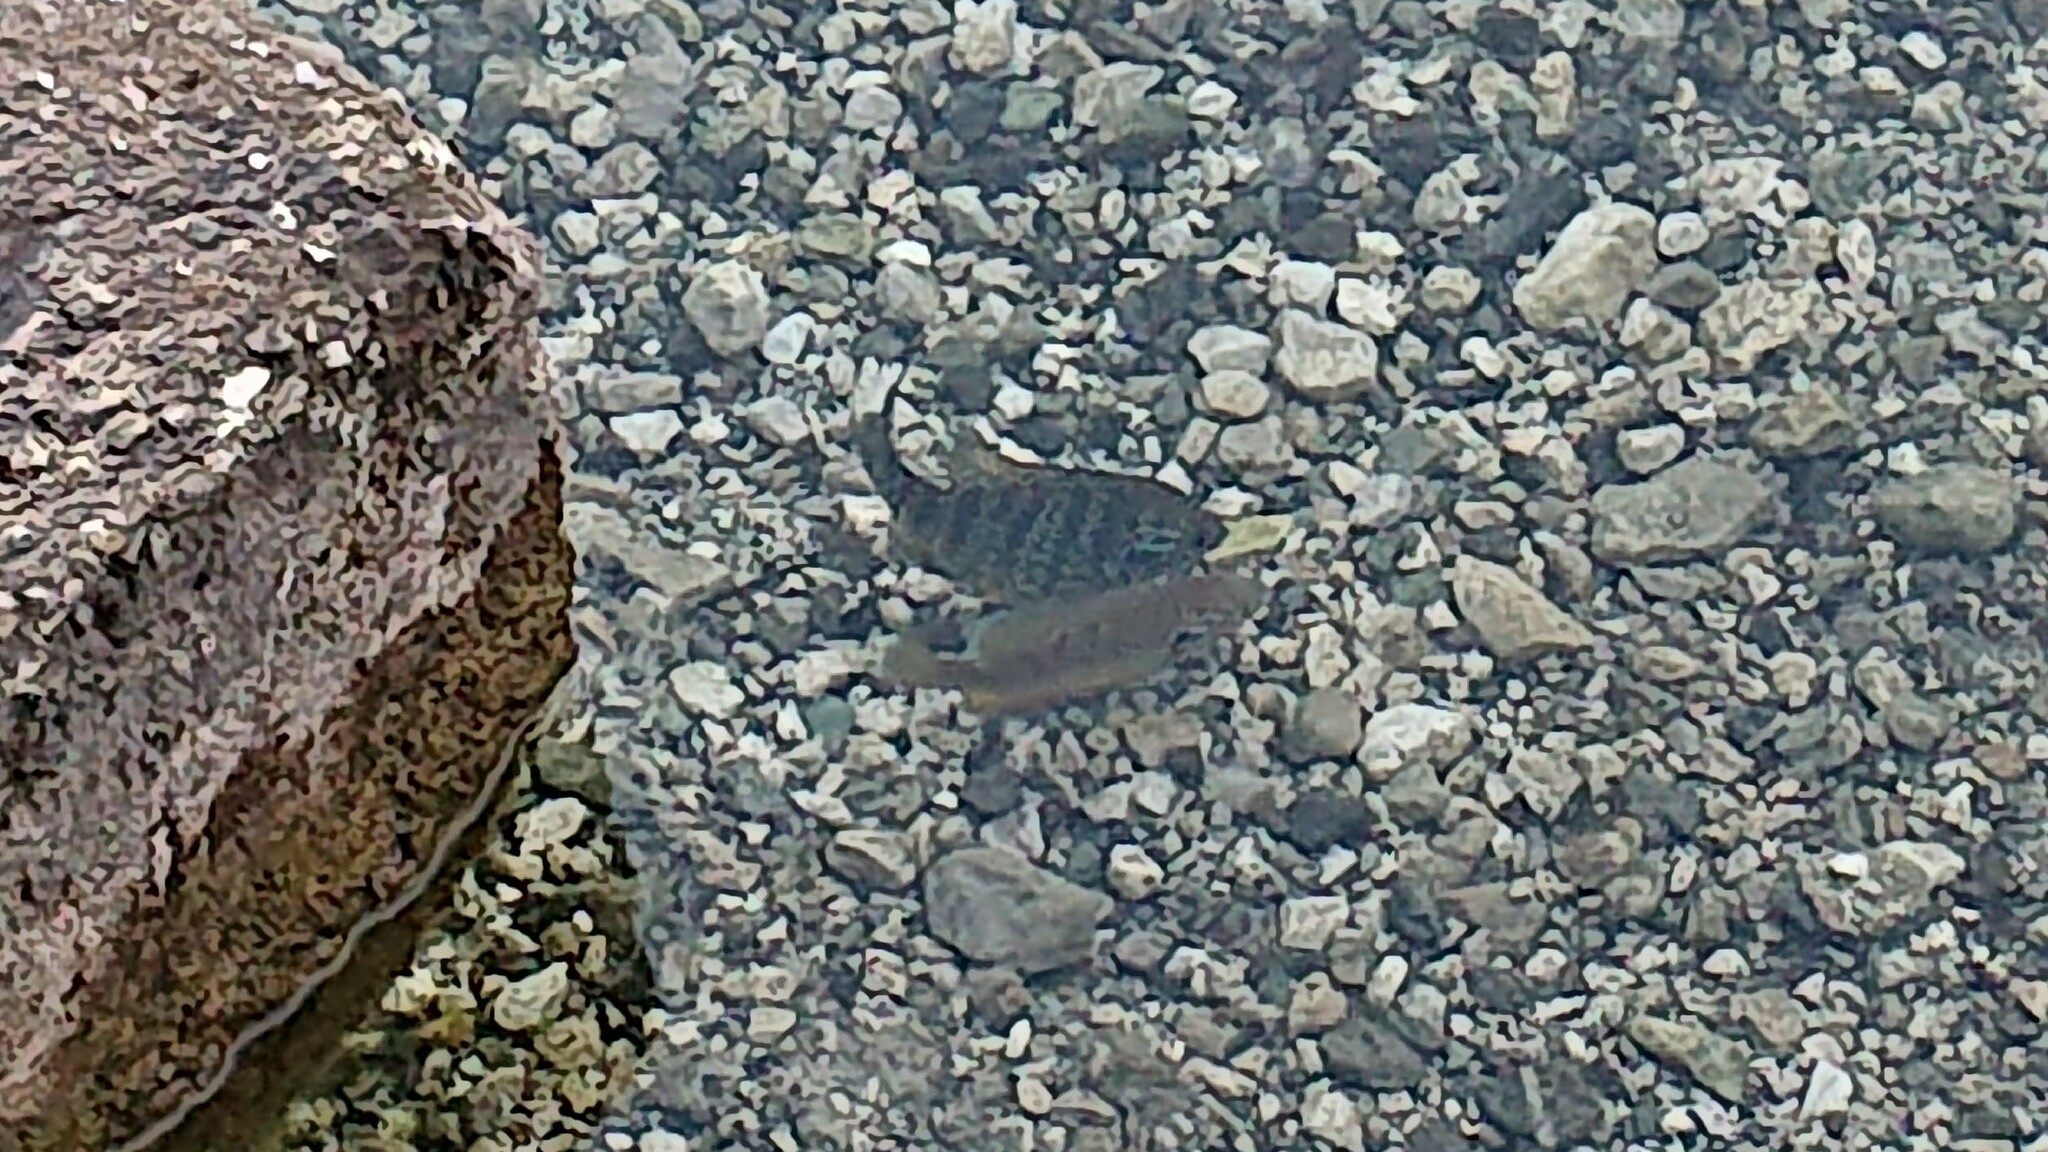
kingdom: Animalia
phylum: Chordata
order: Perciformes
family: Centrarchidae
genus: Lepomis
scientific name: Lepomis gibbosus
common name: Pumpkinseed
